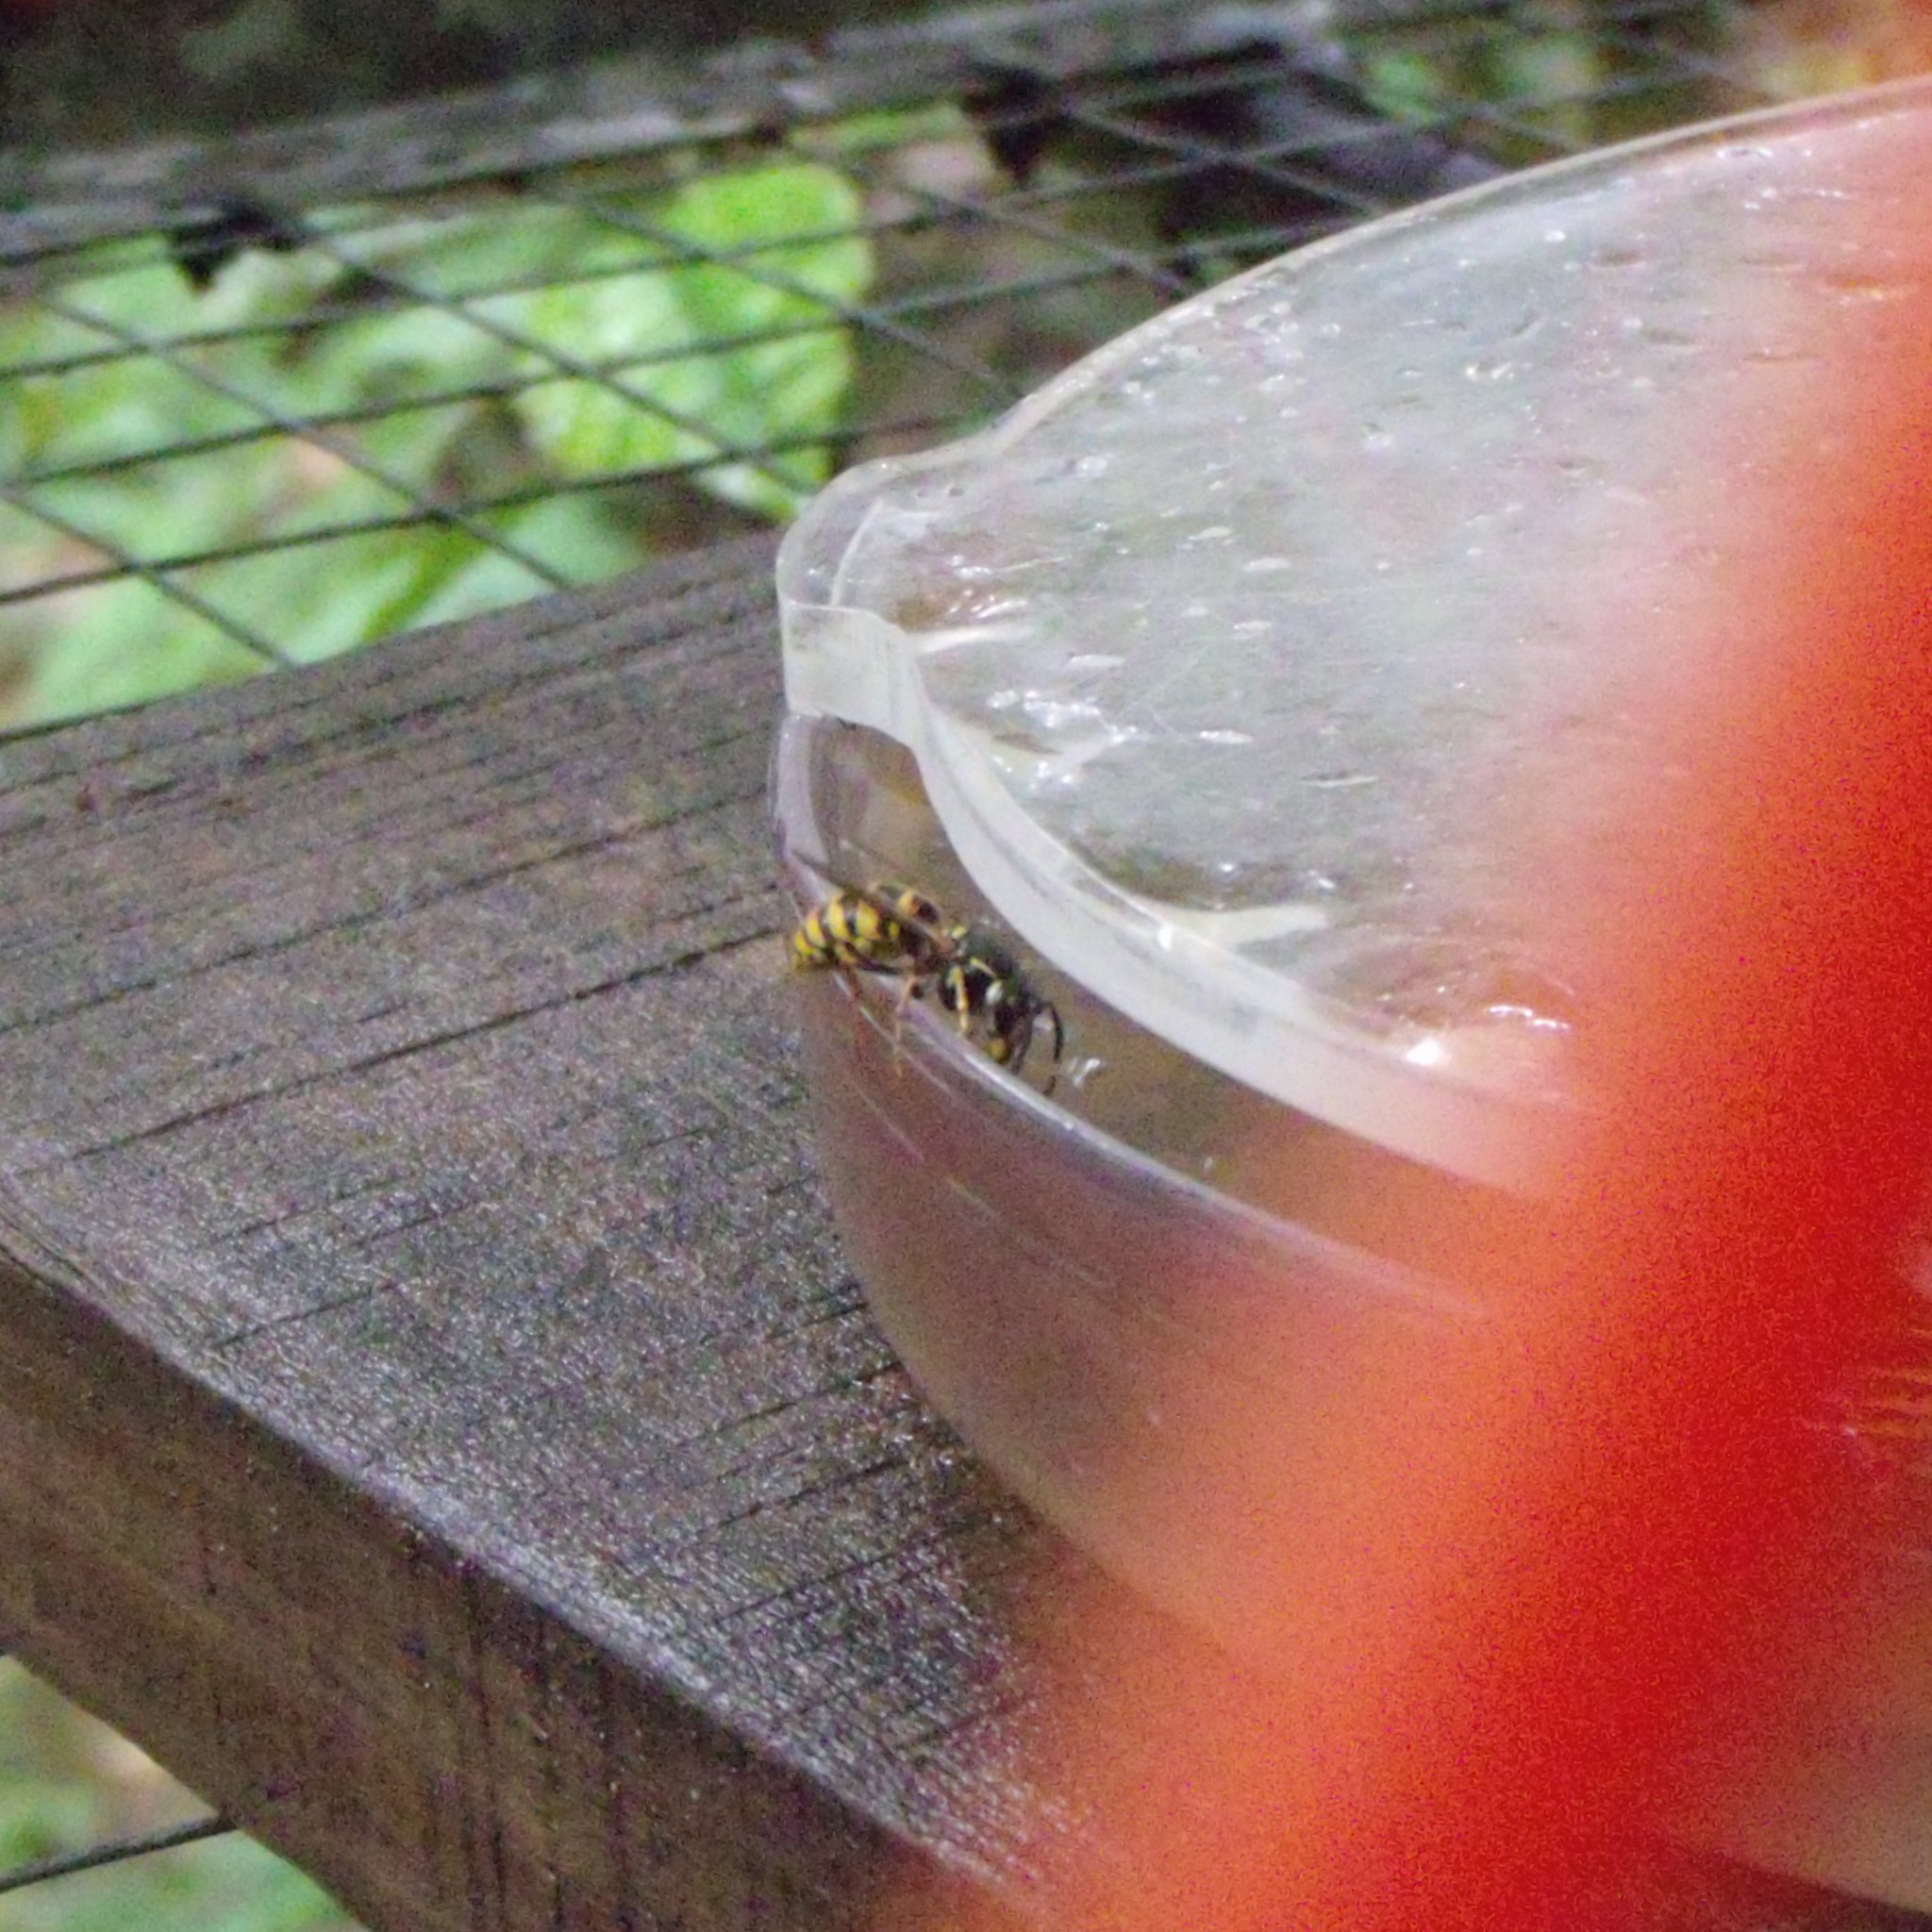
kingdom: Animalia
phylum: Arthropoda
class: Insecta
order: Hymenoptera
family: Vespidae
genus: Vespula
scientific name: Vespula vulgaris
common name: Common wasp
